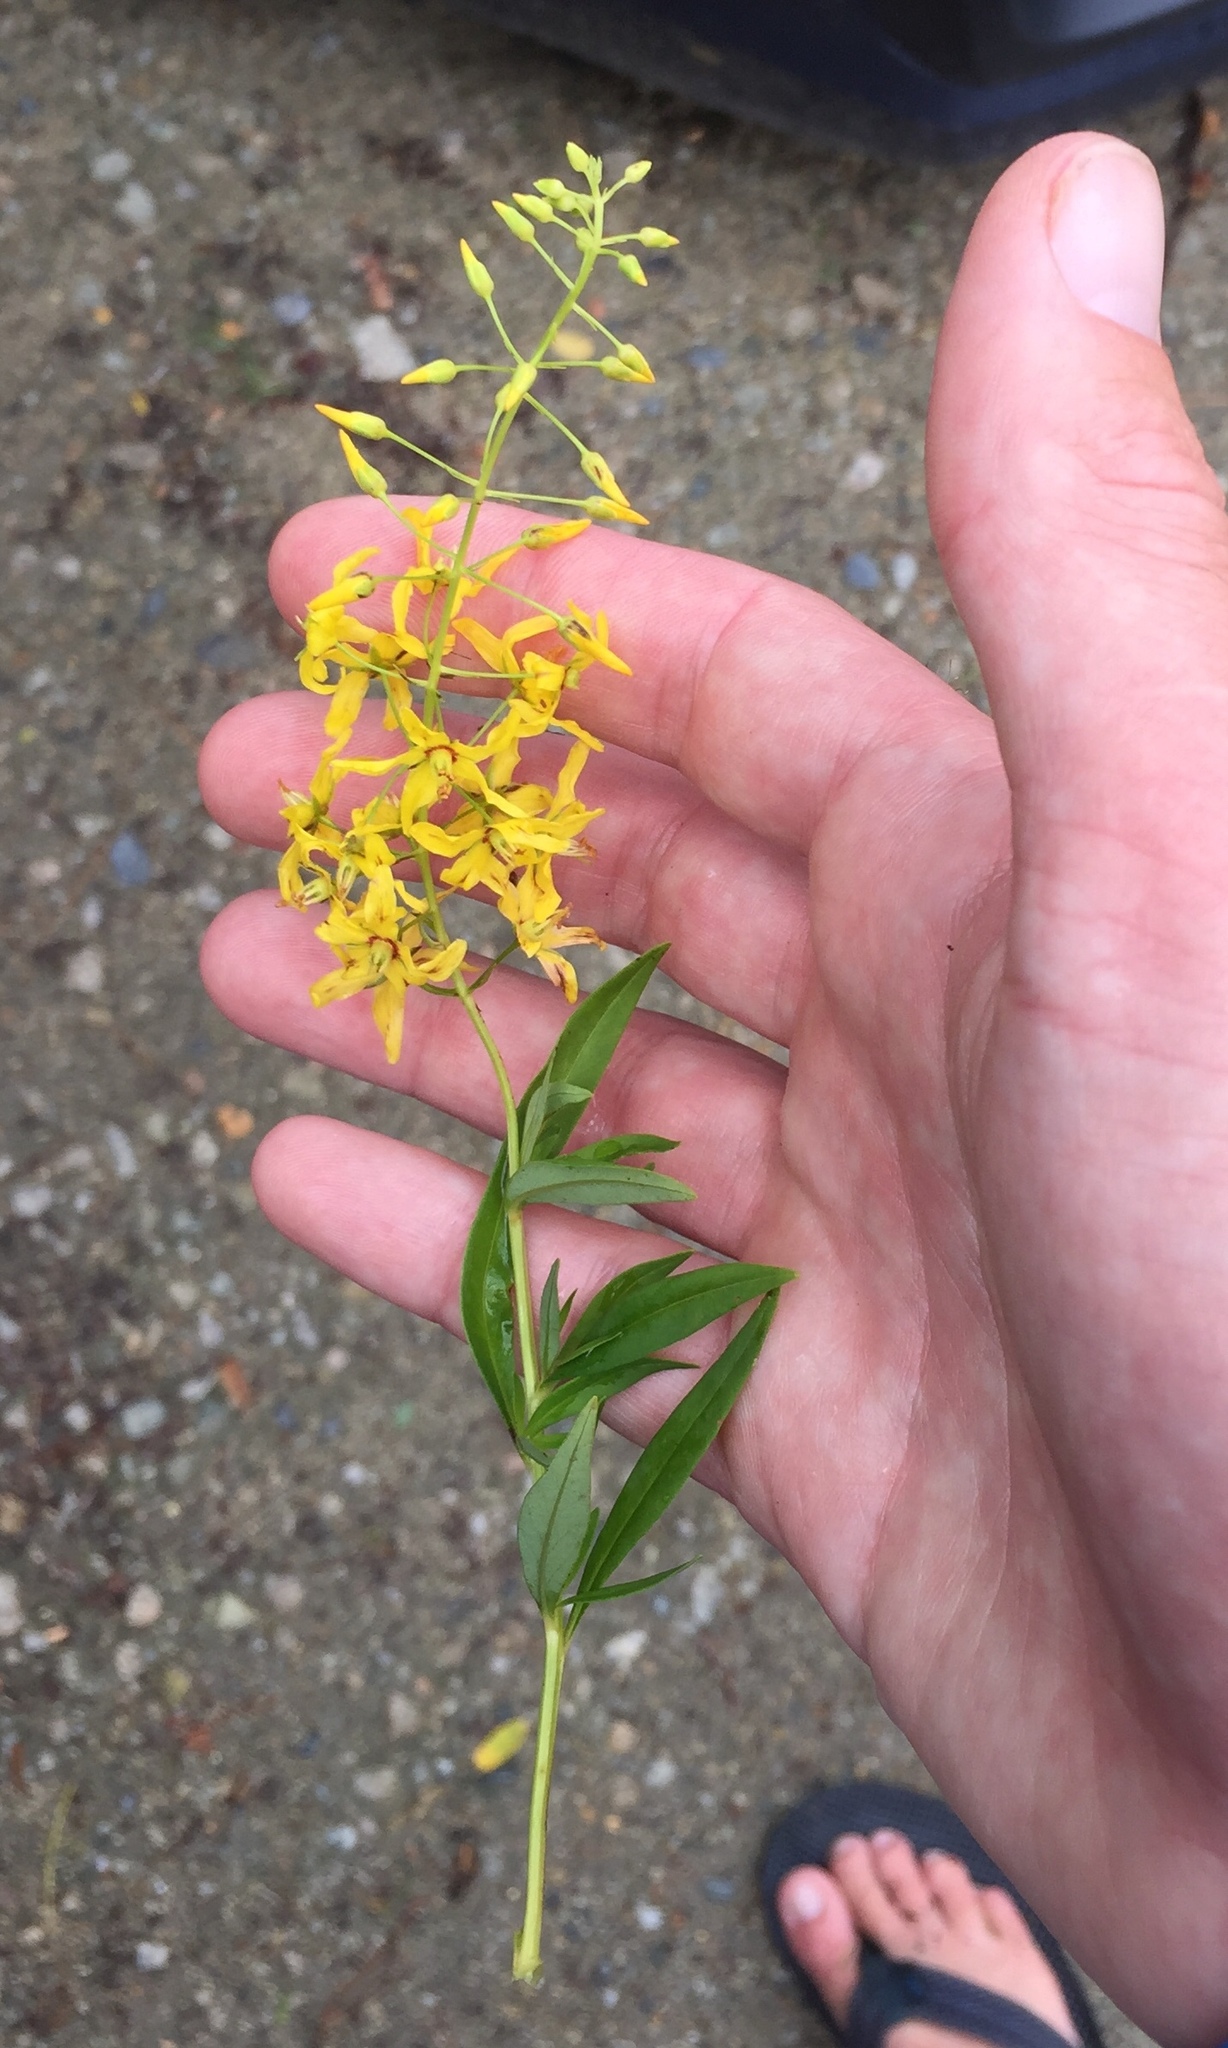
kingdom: Plantae
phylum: Tracheophyta
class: Magnoliopsida
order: Ericales
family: Primulaceae
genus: Lysimachia
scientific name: Lysimachia terrestris
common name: Lake loosestrife
